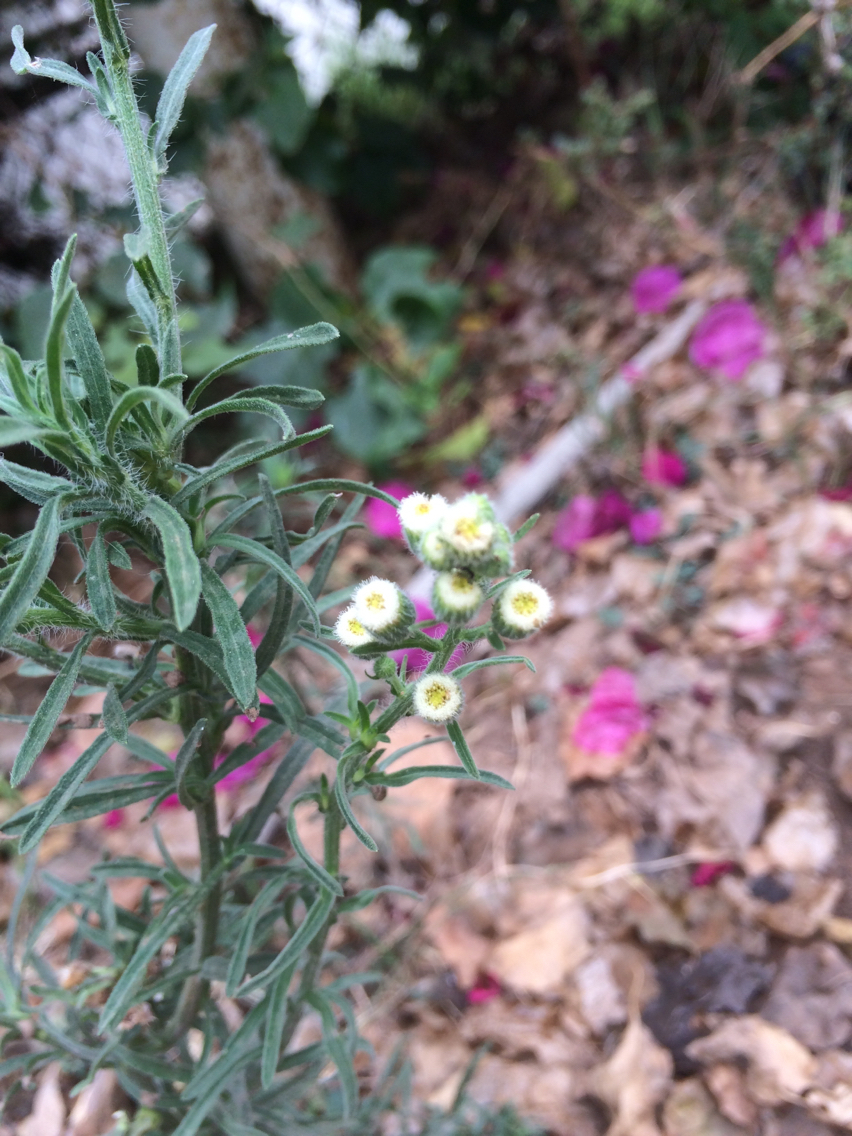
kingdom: Plantae
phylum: Tracheophyta
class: Magnoliopsida
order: Asterales
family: Asteraceae
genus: Erigeron
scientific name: Erigeron bonariensis
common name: Argentine fleabane
